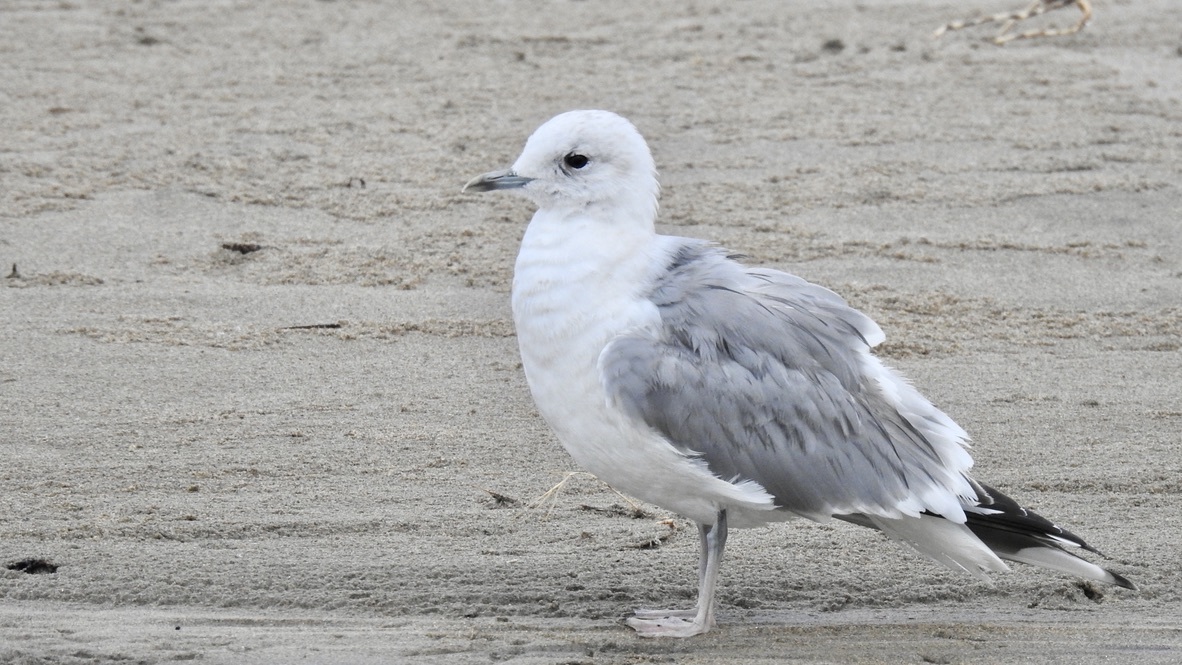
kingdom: Animalia
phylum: Chordata
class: Aves
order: Charadriiformes
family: Laridae
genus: Larus
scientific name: Larus brachyrhynchus
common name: Short-billed gull
